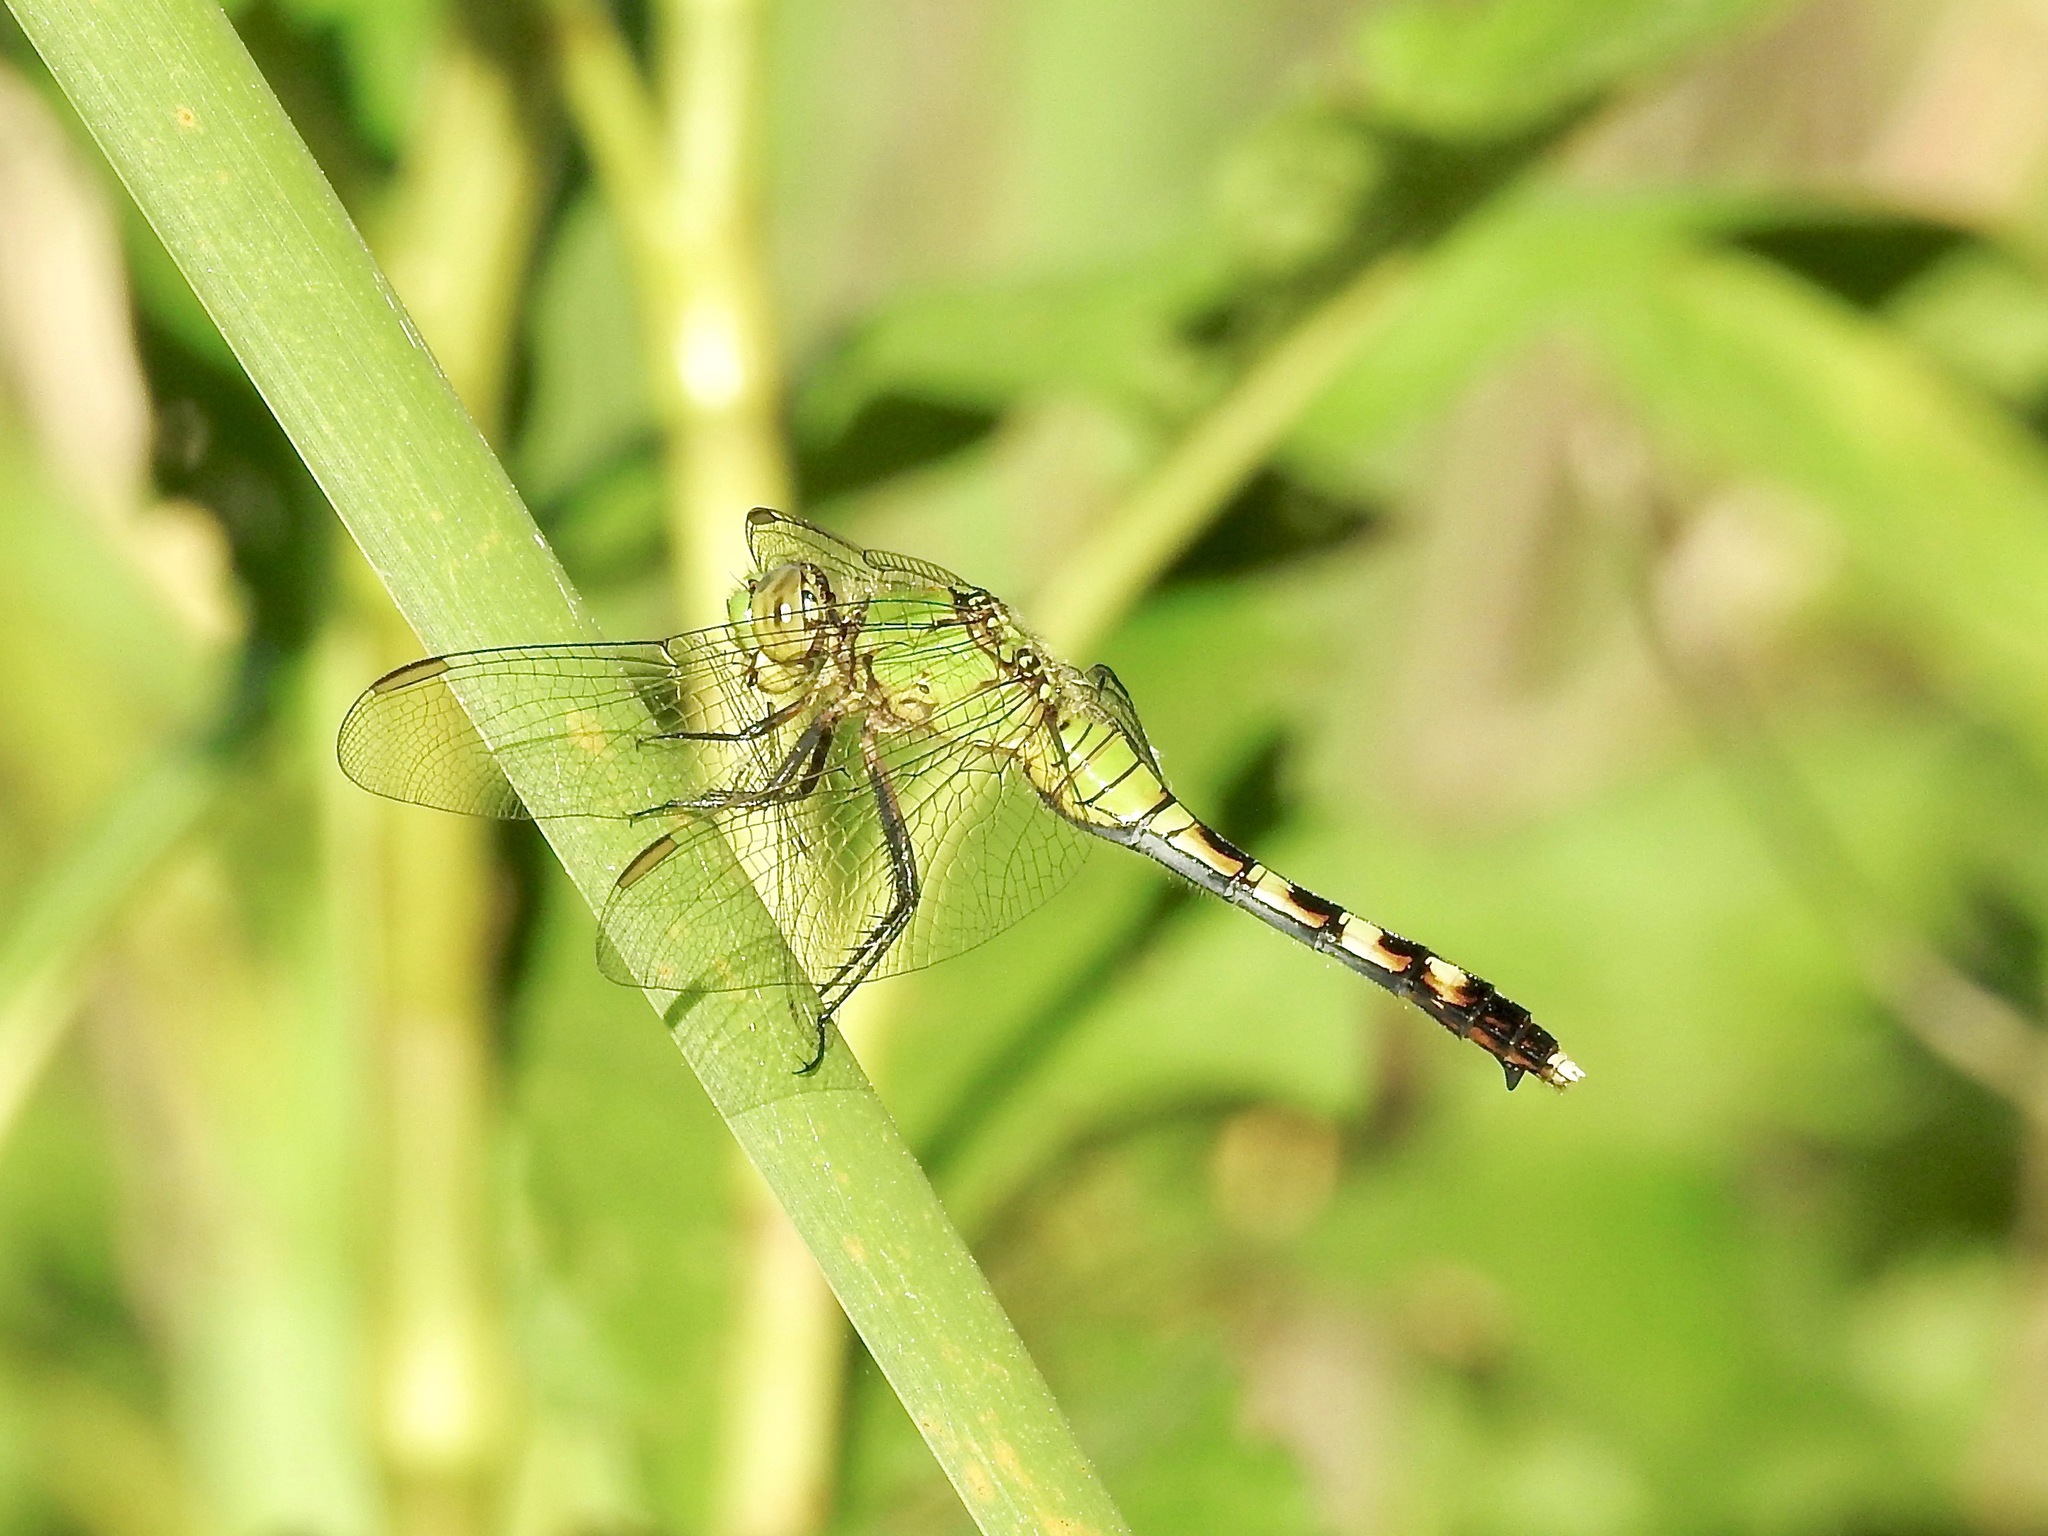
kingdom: Animalia
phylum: Arthropoda
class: Insecta
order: Odonata
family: Libellulidae
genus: Erythemis
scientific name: Erythemis simplicicollis
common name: Eastern pondhawk
